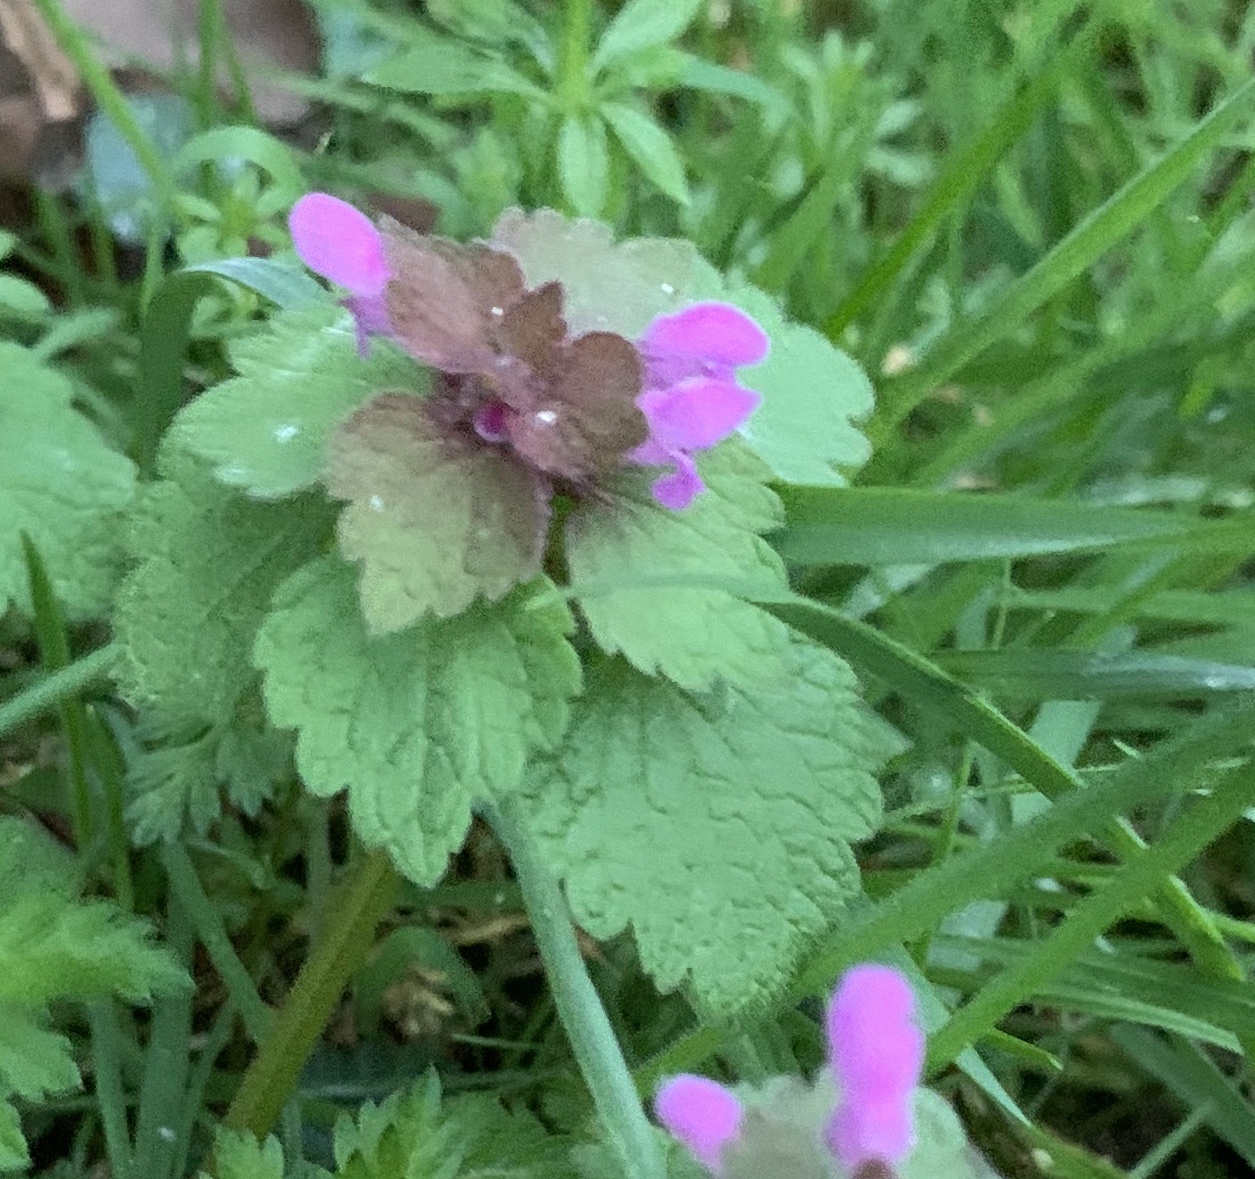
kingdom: Plantae
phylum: Tracheophyta
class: Magnoliopsida
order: Lamiales
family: Lamiaceae
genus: Lamium
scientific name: Lamium purpureum
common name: Red dead-nettle
